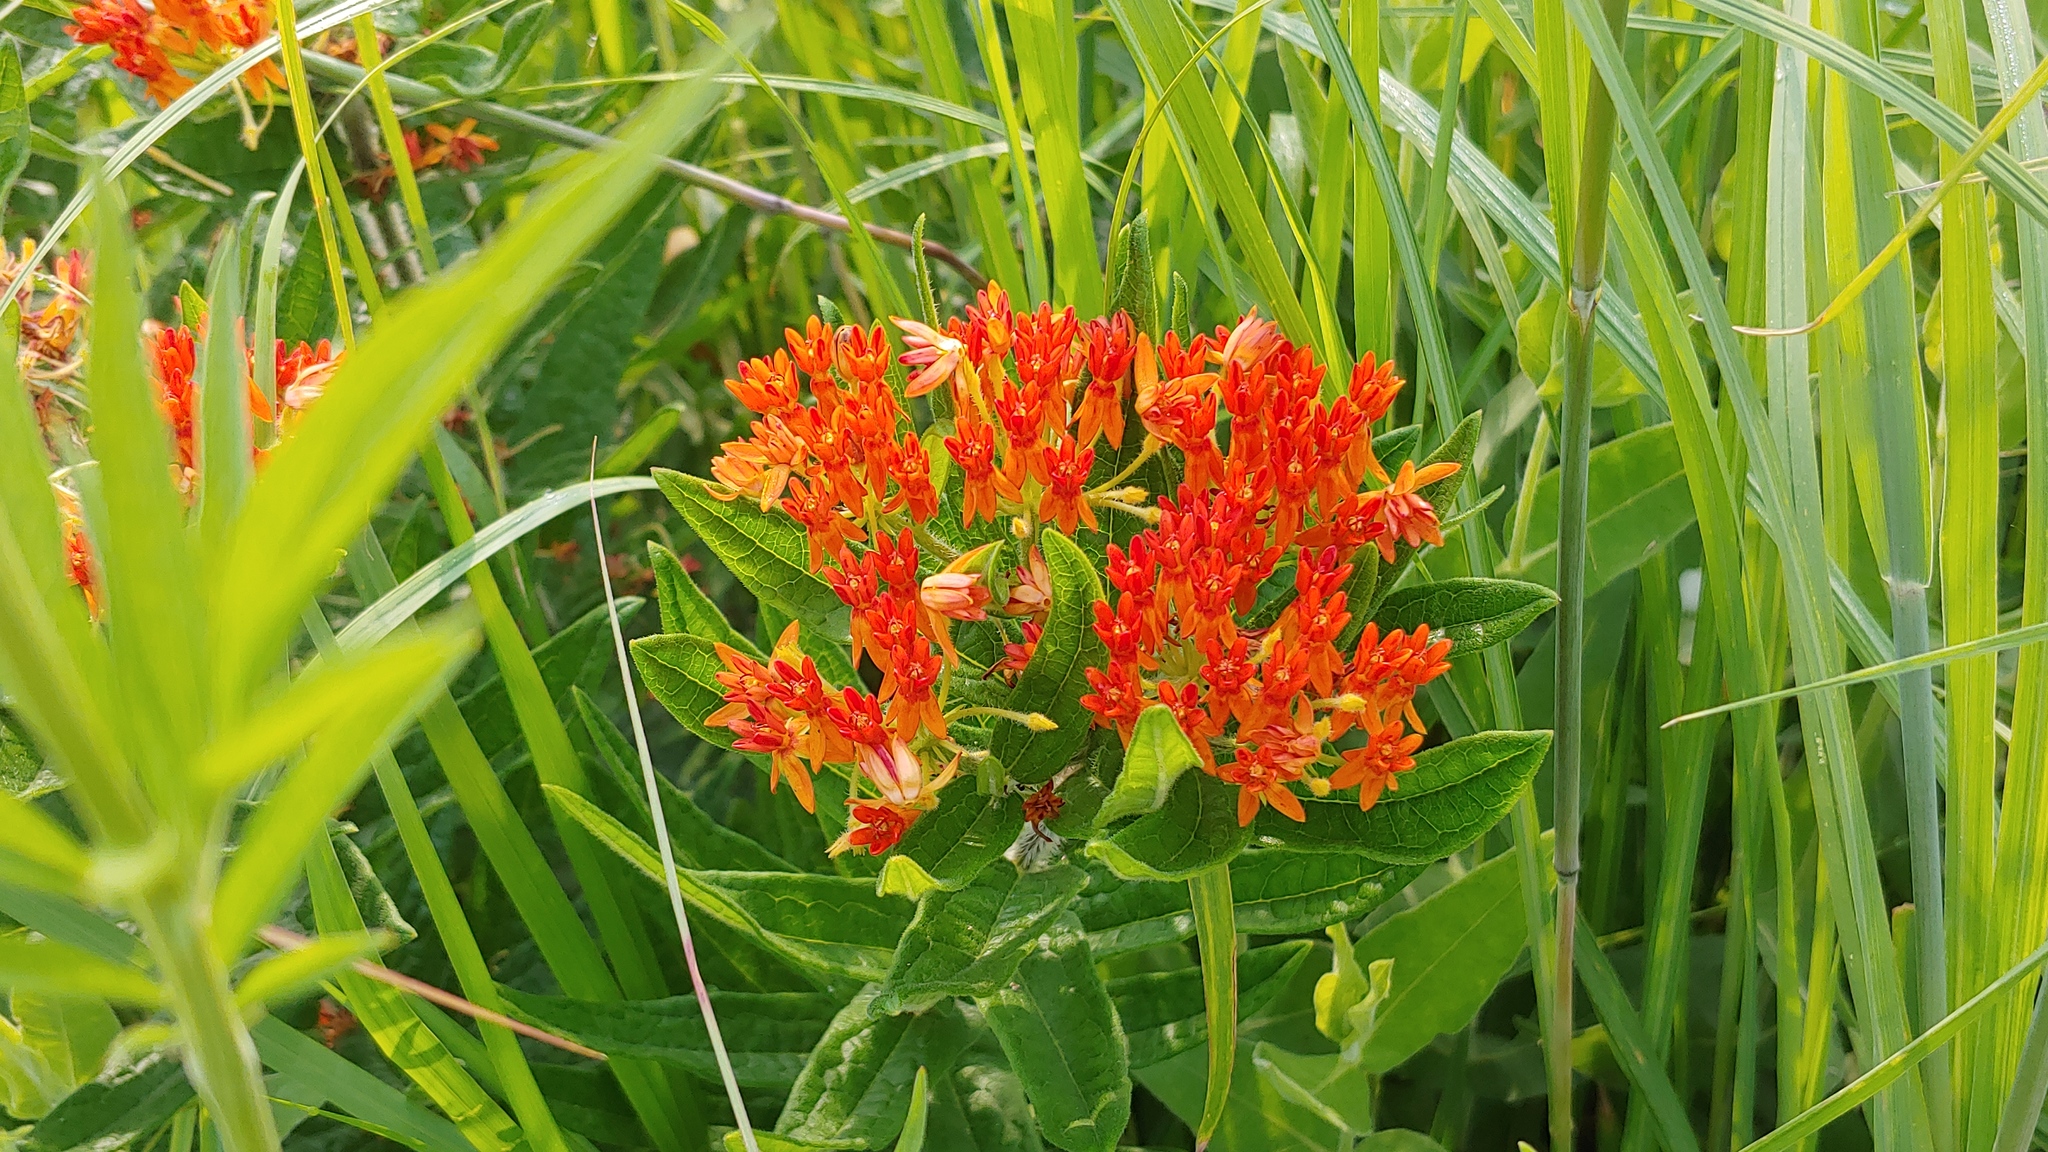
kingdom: Plantae
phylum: Tracheophyta
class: Magnoliopsida
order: Gentianales
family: Apocynaceae
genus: Asclepias
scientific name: Asclepias tuberosa
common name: Butterfly milkweed
